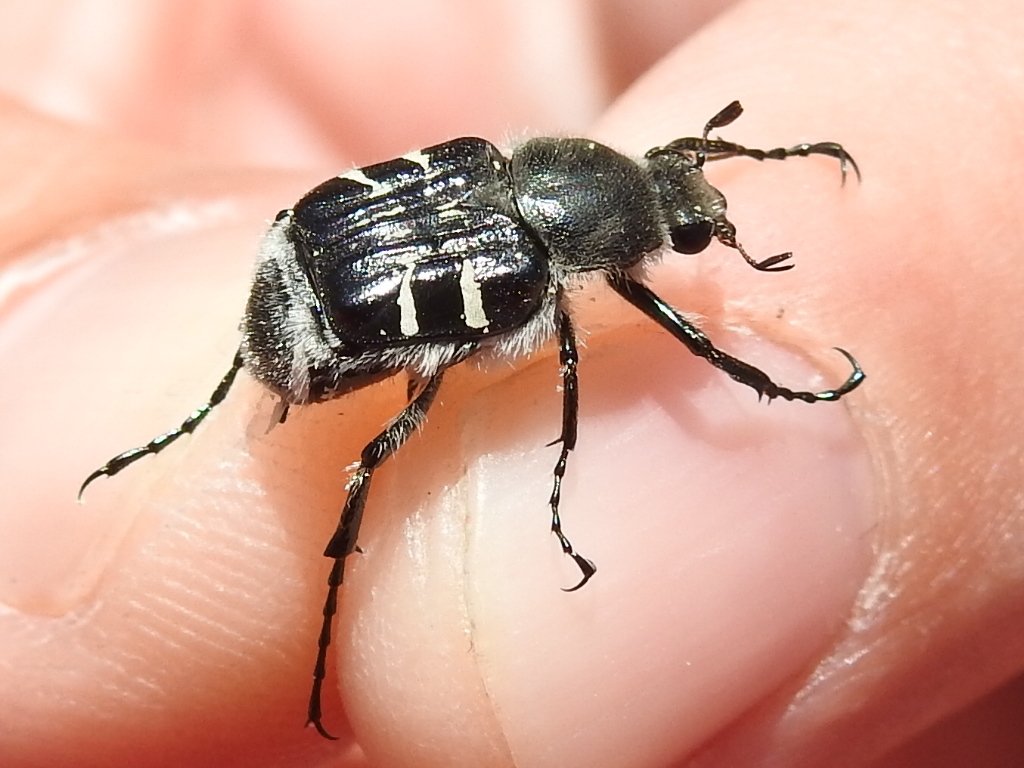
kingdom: Animalia
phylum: Arthropoda
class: Insecta
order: Coleoptera
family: Scarabaeidae
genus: Trichiotinus
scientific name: Trichiotinus texanus
